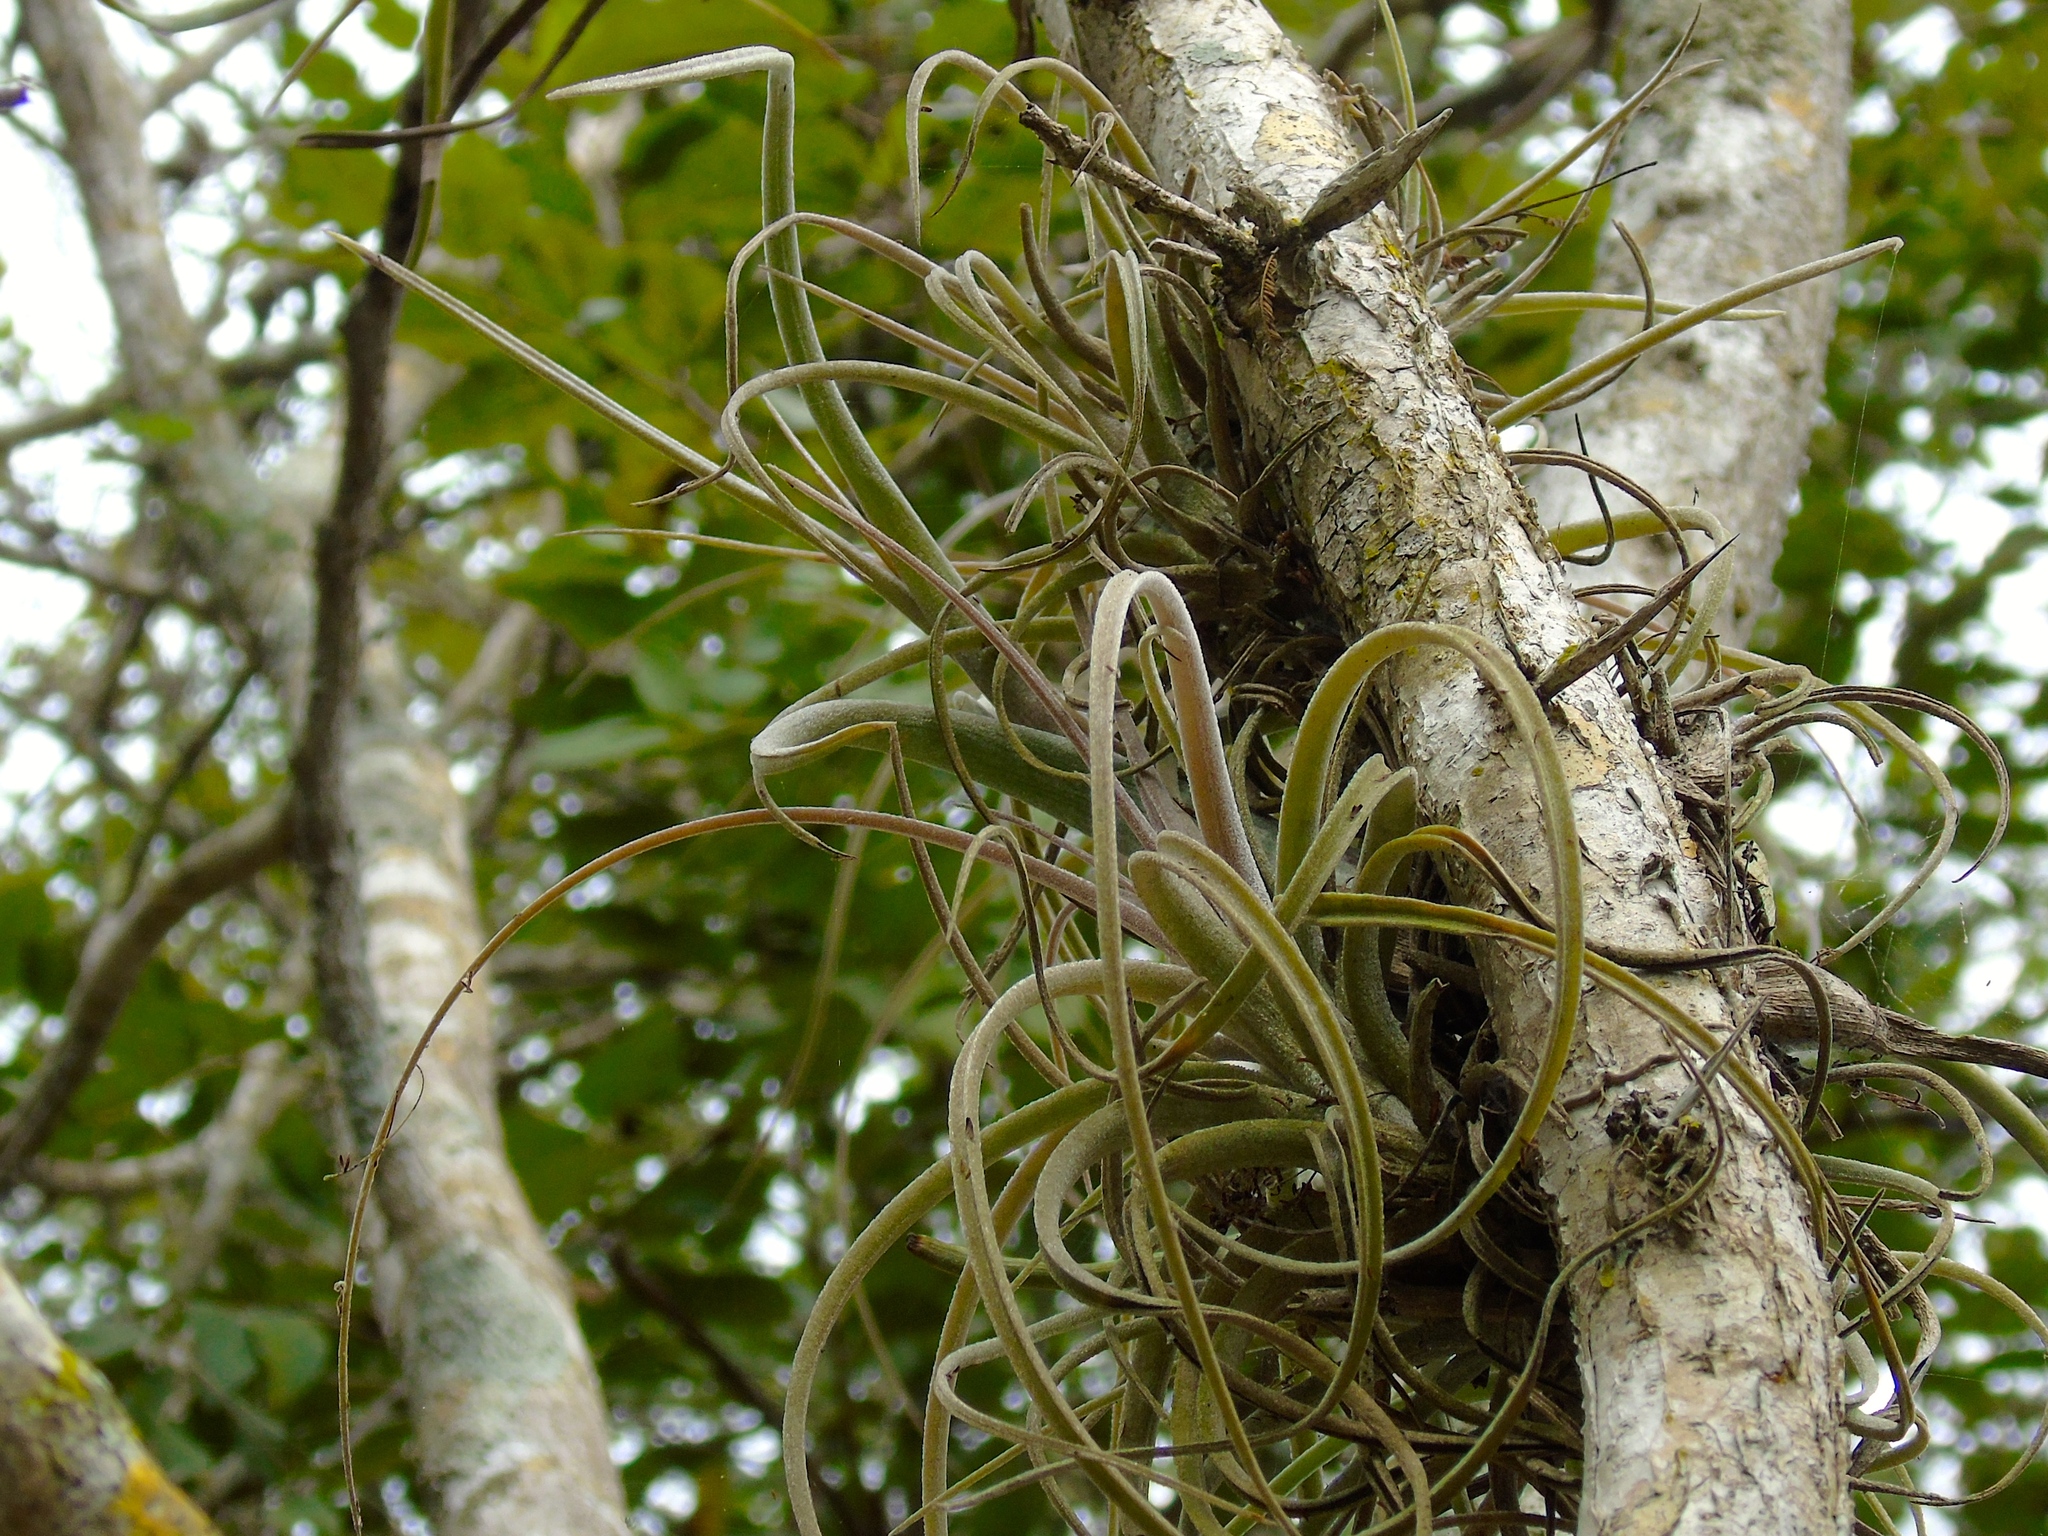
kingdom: Plantae
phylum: Tracheophyta
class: Liliopsida
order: Poales
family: Bromeliaceae
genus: Tillandsia
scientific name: Tillandsia exserta
